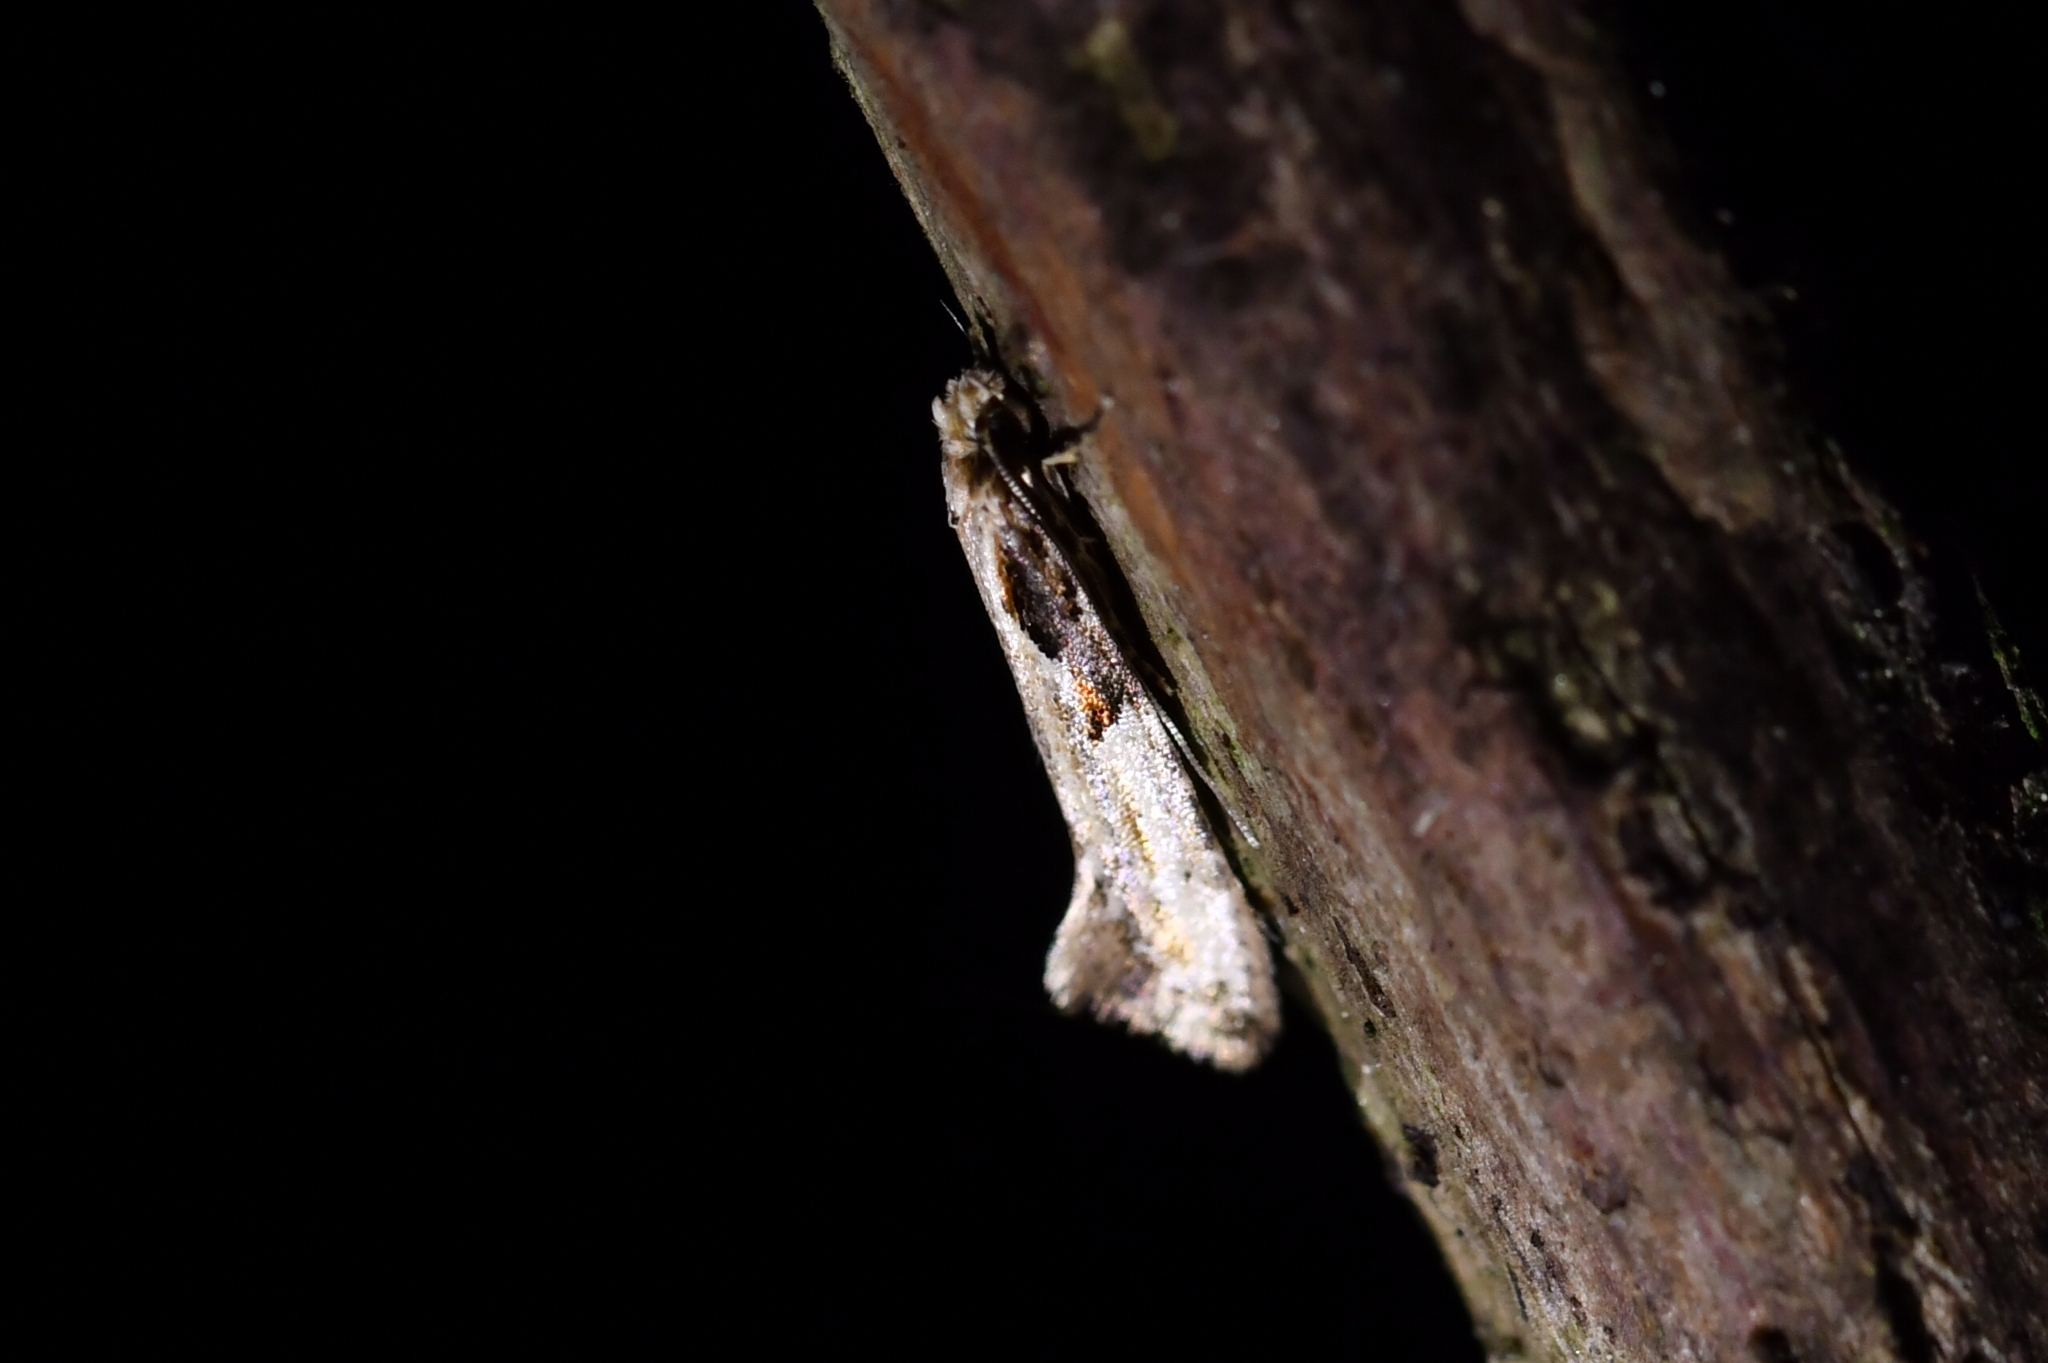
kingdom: Animalia
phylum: Arthropoda
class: Insecta
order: Lepidoptera
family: Tineidae
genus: Crypsitricha
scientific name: Crypsitricha pharotoma
